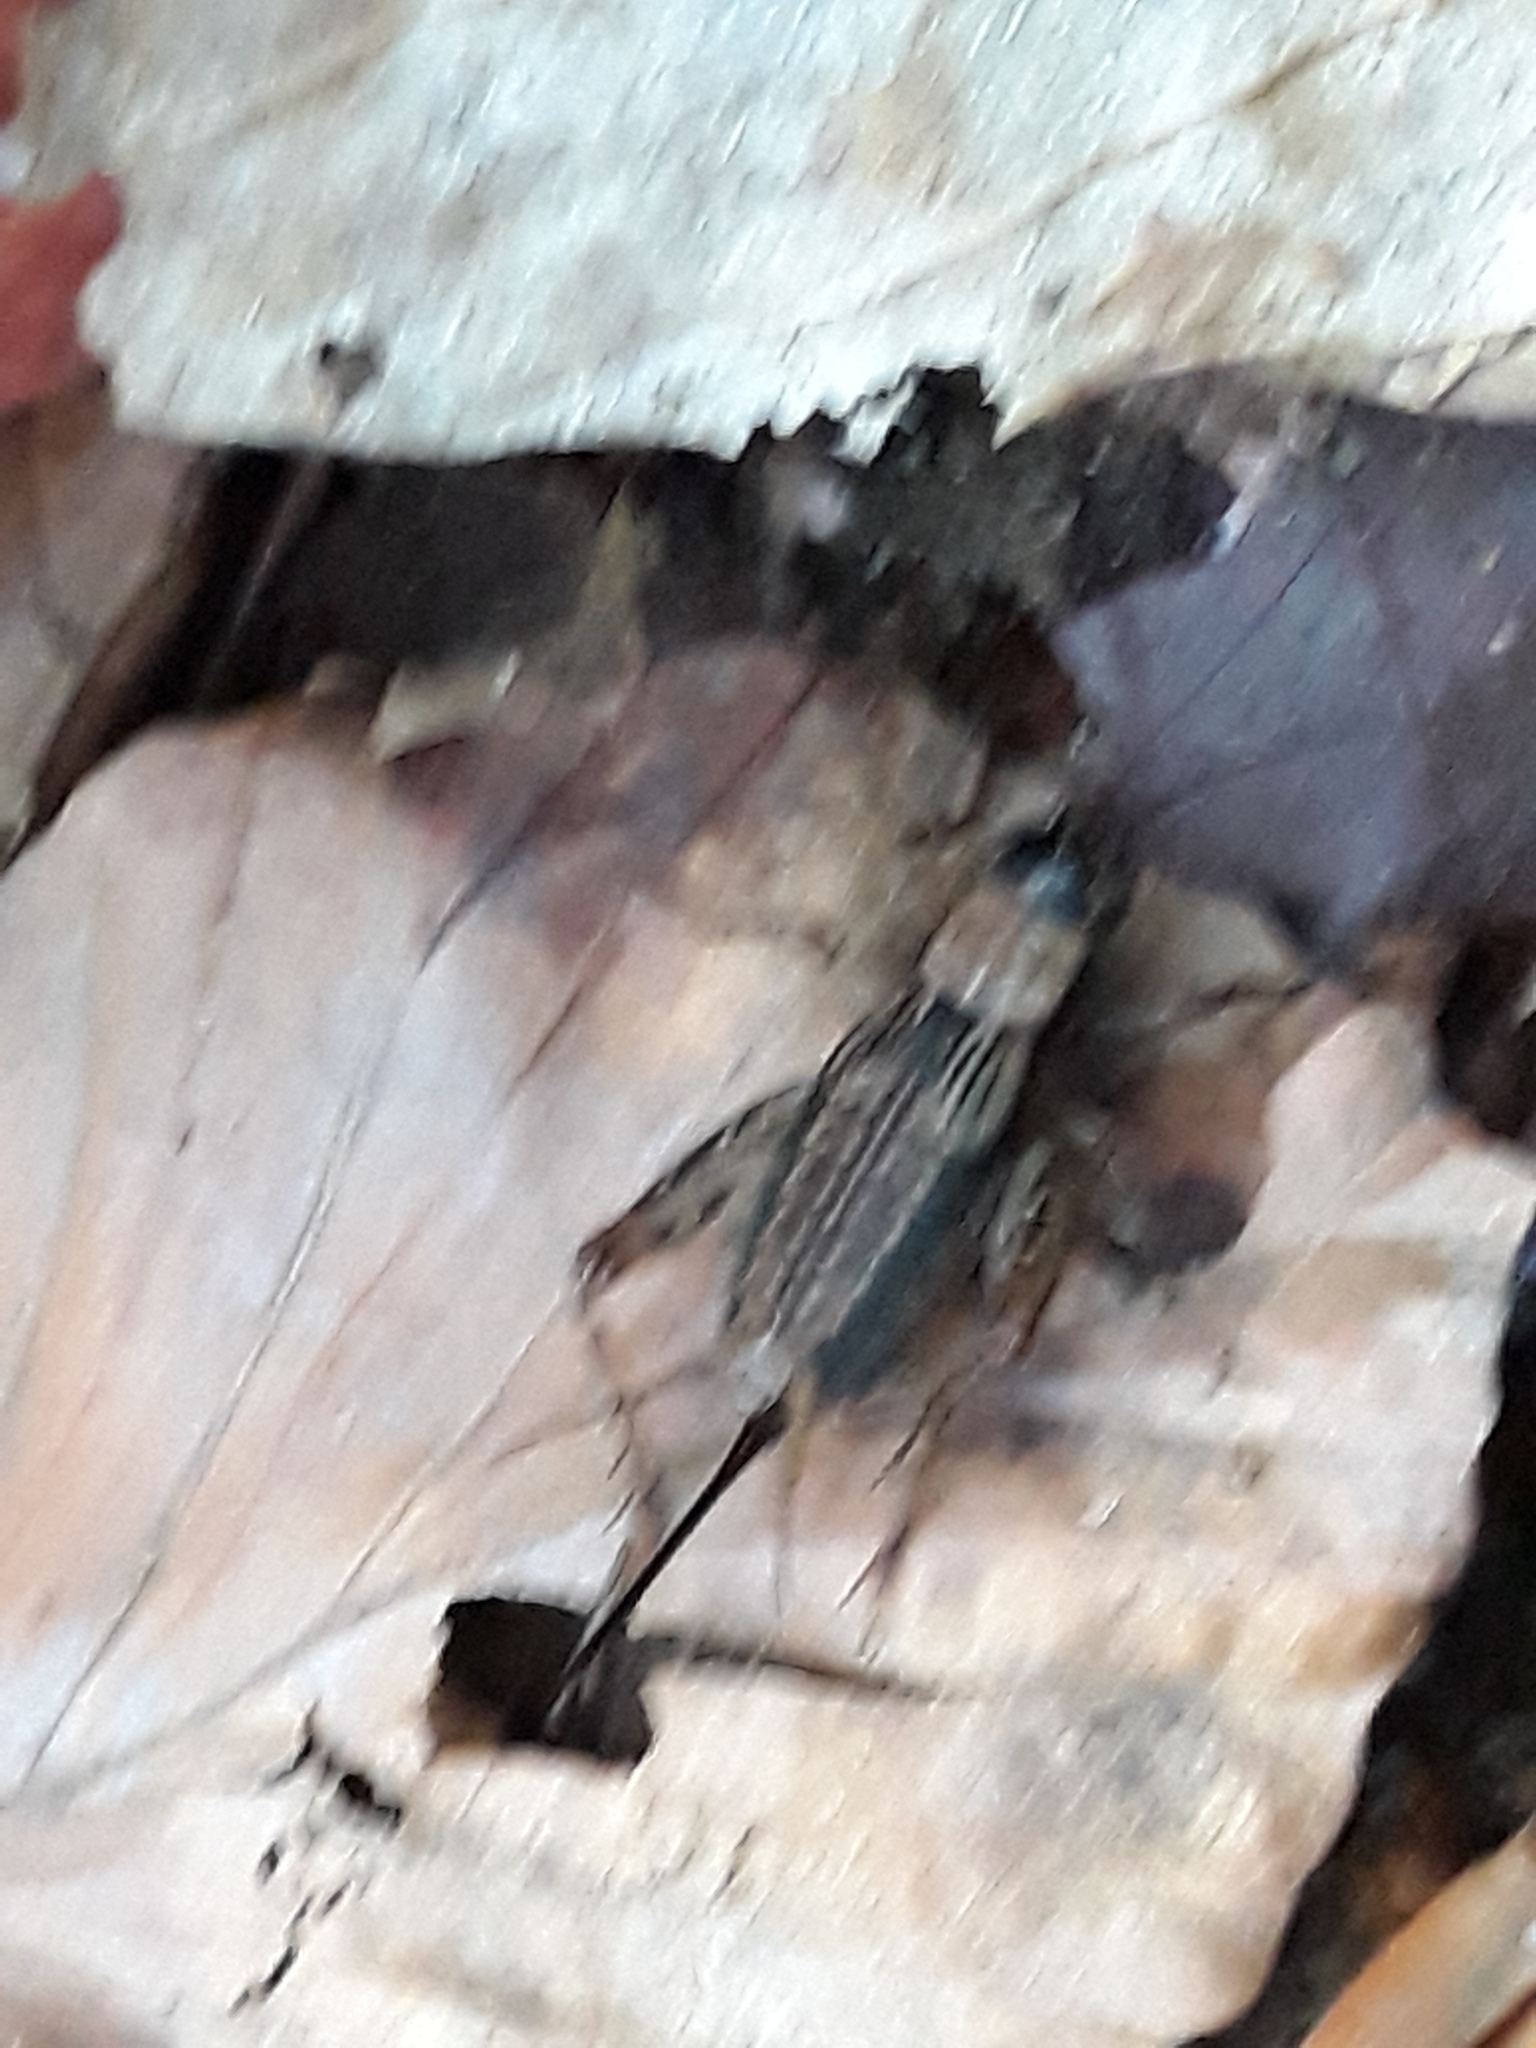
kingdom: Animalia
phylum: Arthropoda
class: Insecta
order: Orthoptera
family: Trigonidiidae
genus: Nemobius
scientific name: Nemobius sylvestris
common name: Wood-cricket
